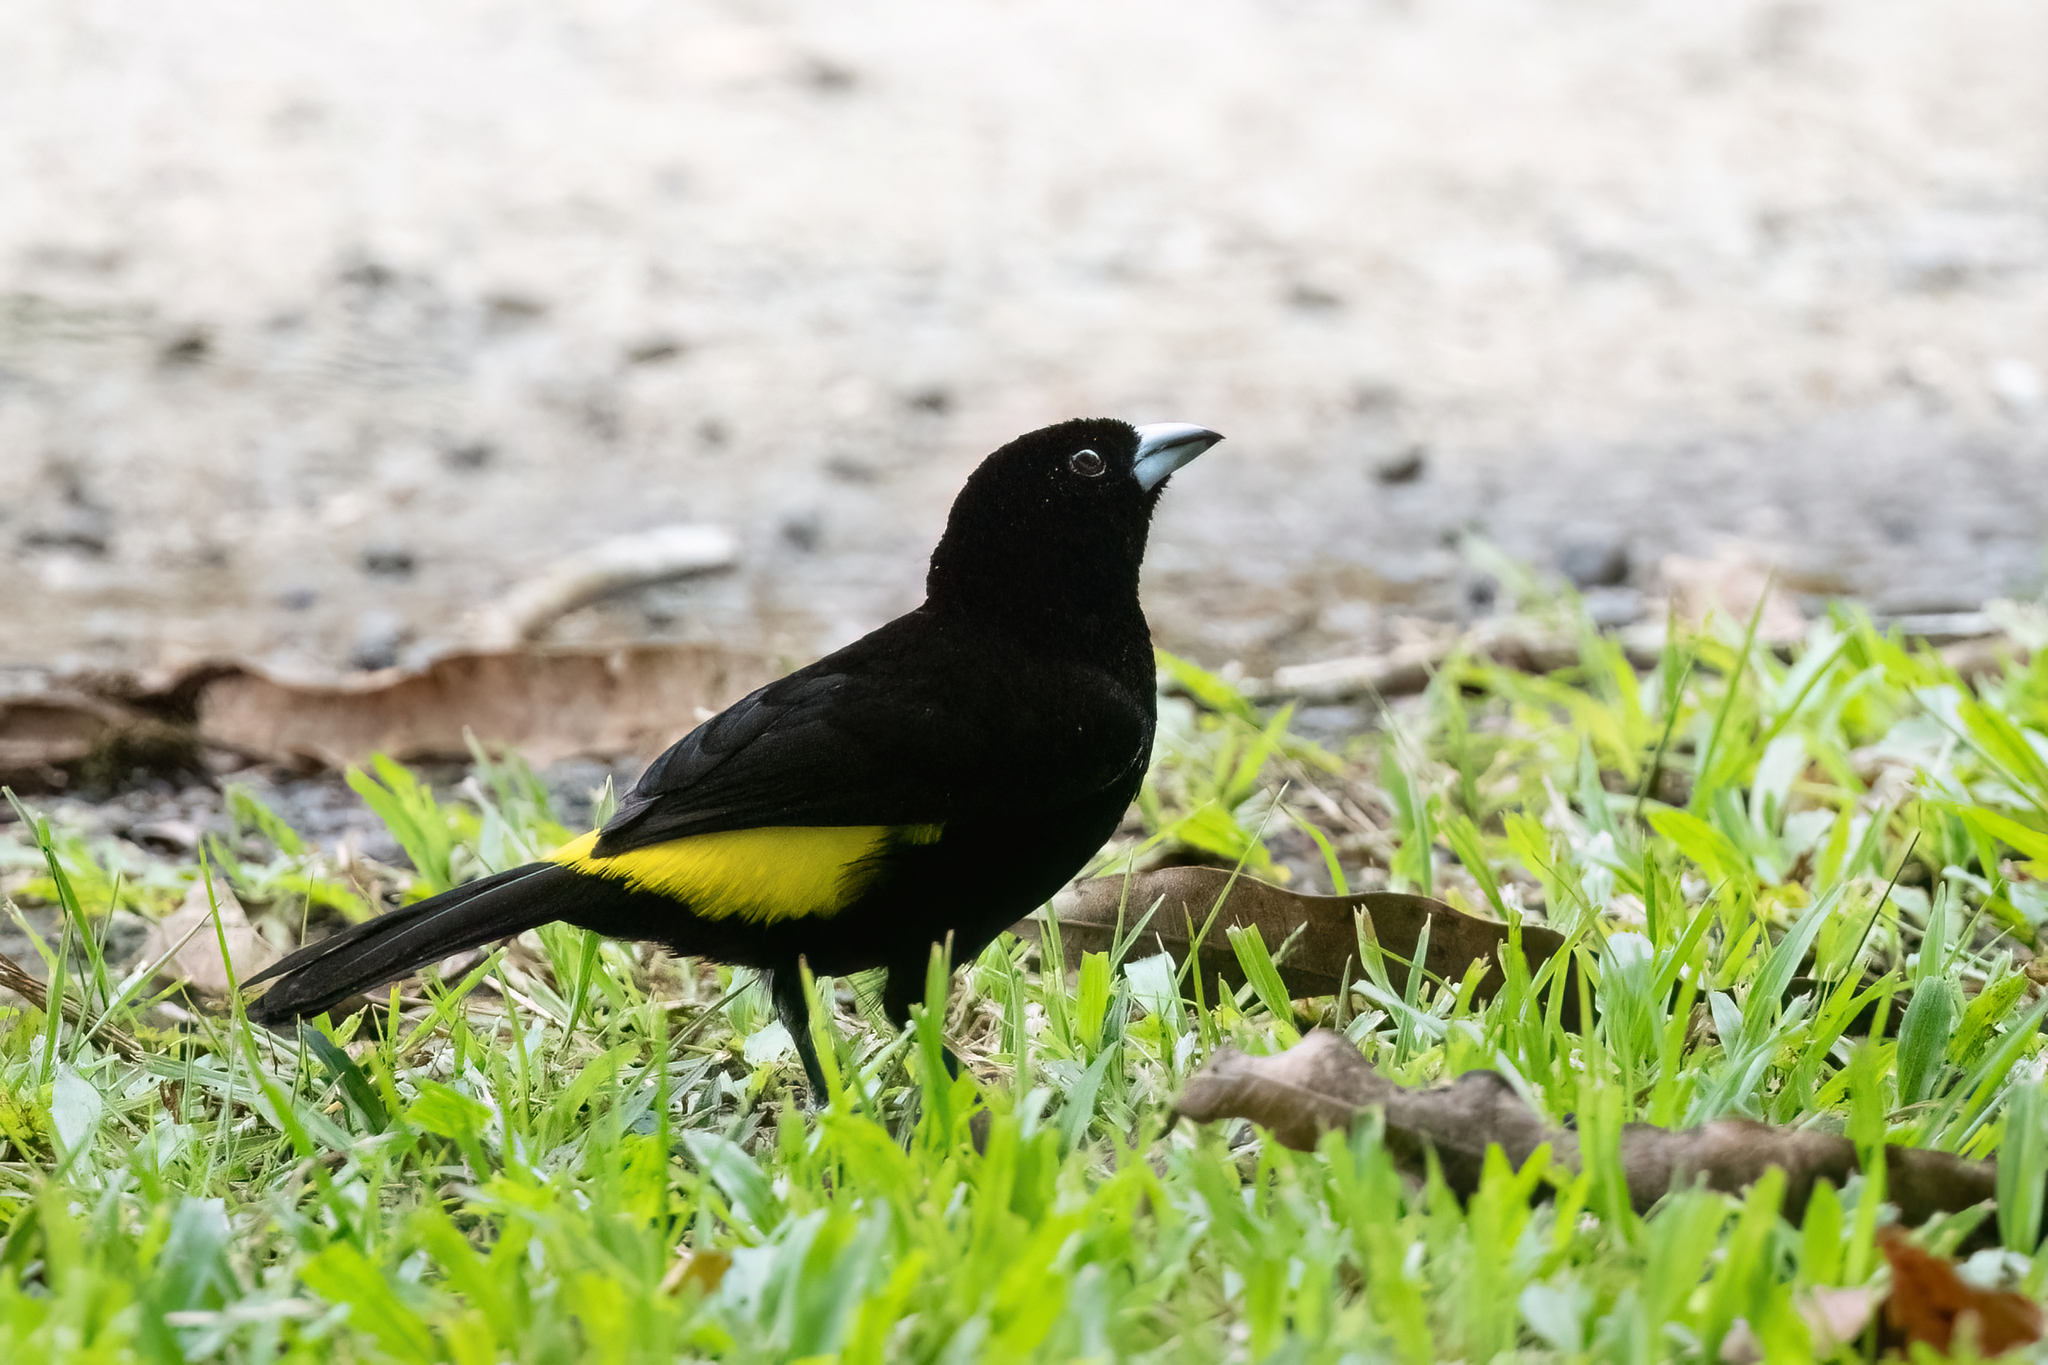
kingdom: Animalia
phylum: Chordata
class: Aves
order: Passeriformes
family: Thraupidae
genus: Ramphocelus
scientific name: Ramphocelus flammigerus
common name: Flame-rumped tanager
